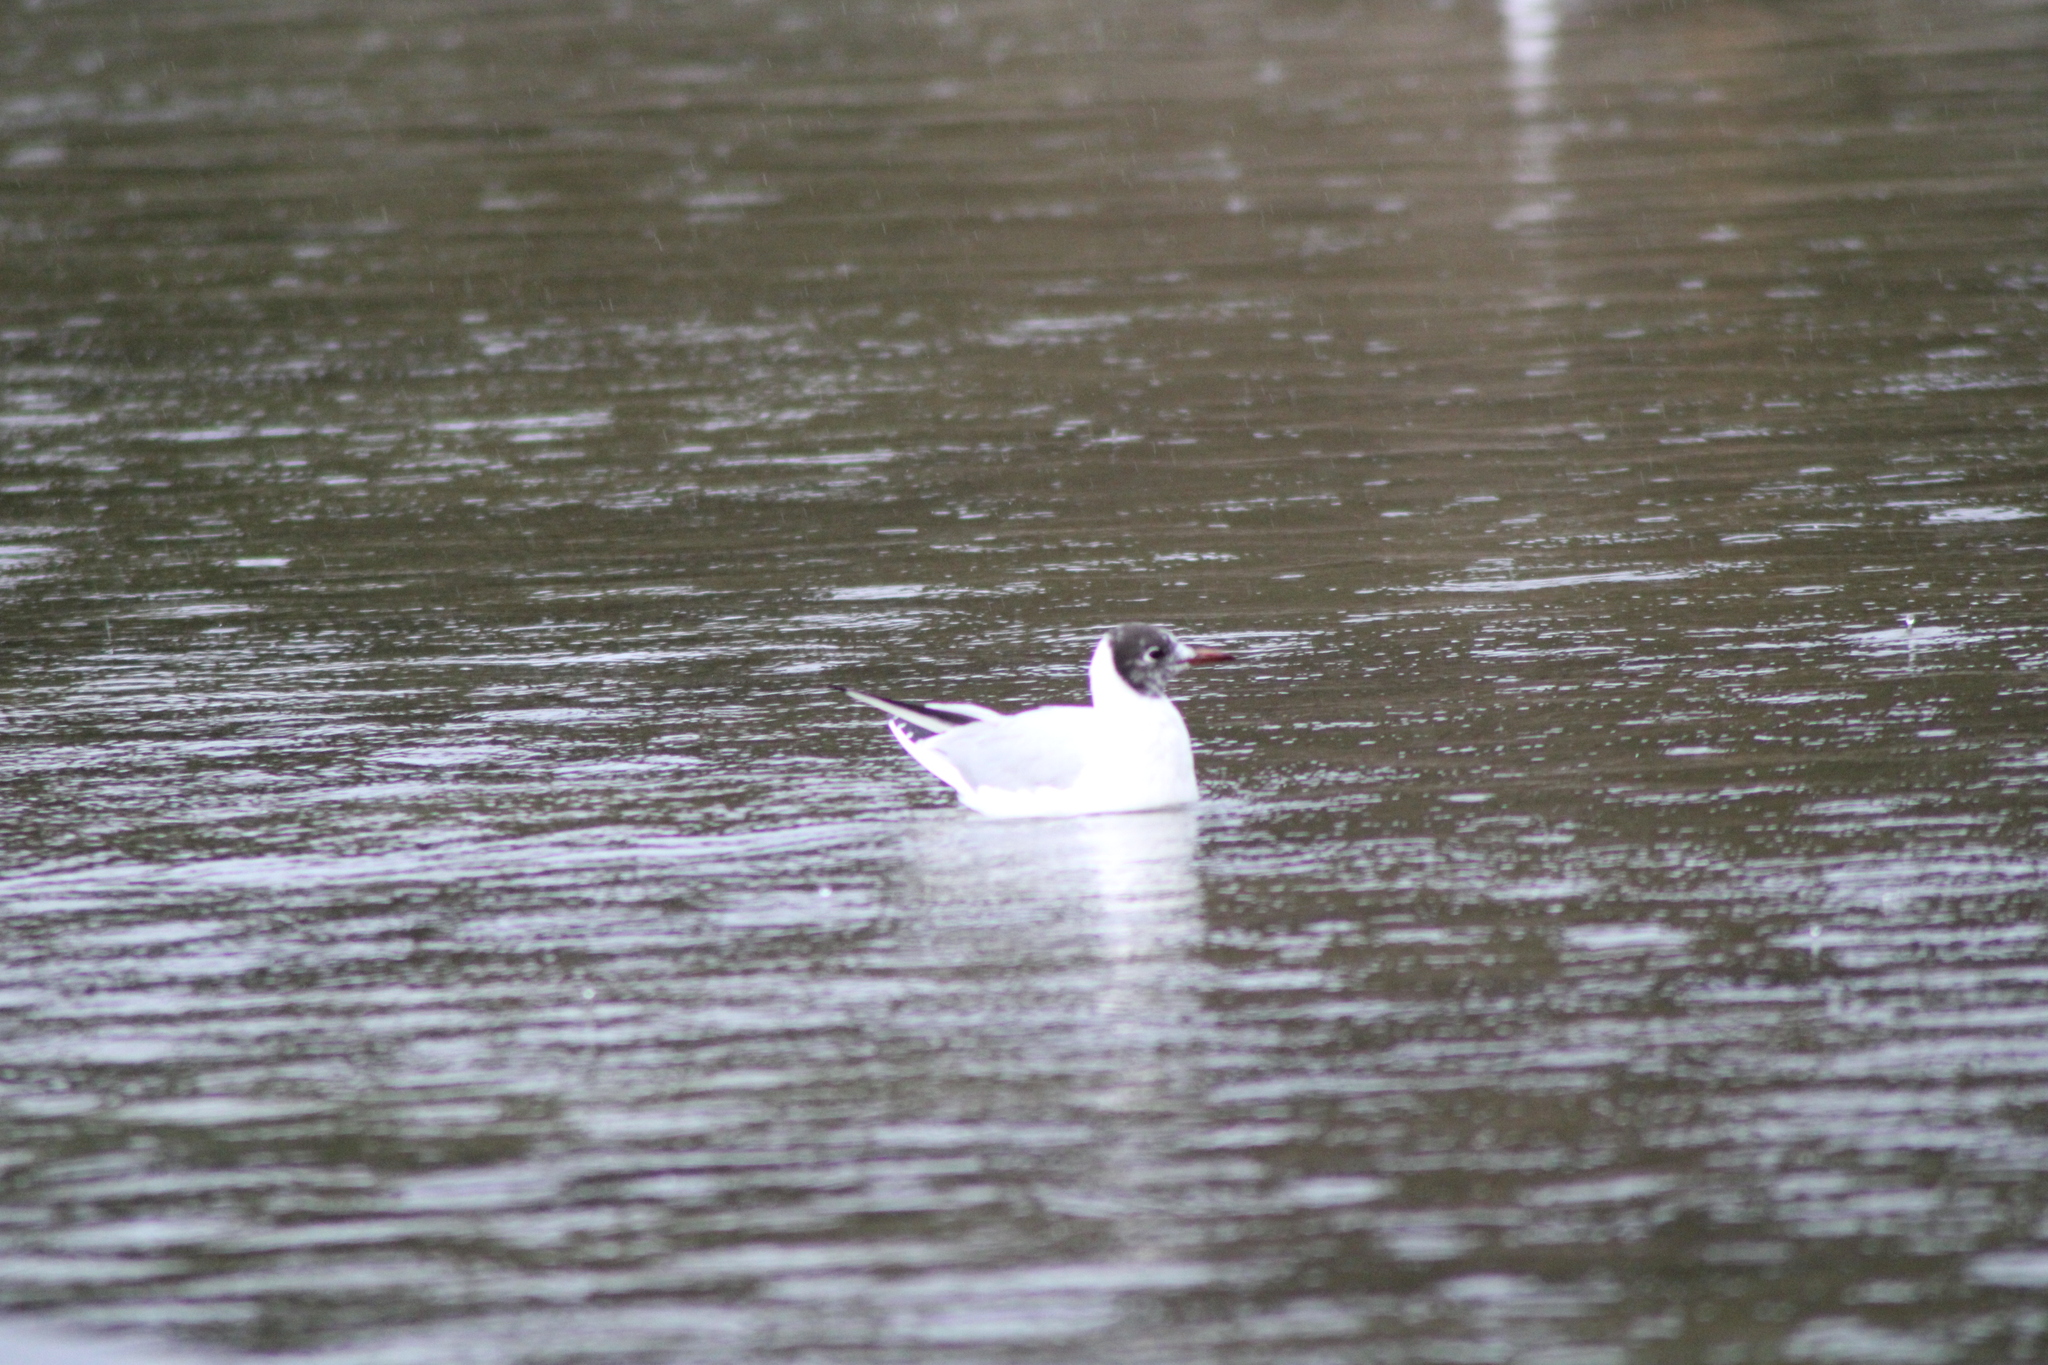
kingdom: Animalia
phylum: Chordata
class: Aves
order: Charadriiformes
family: Laridae
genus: Chroicocephalus
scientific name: Chroicocephalus ridibundus
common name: Black-headed gull
